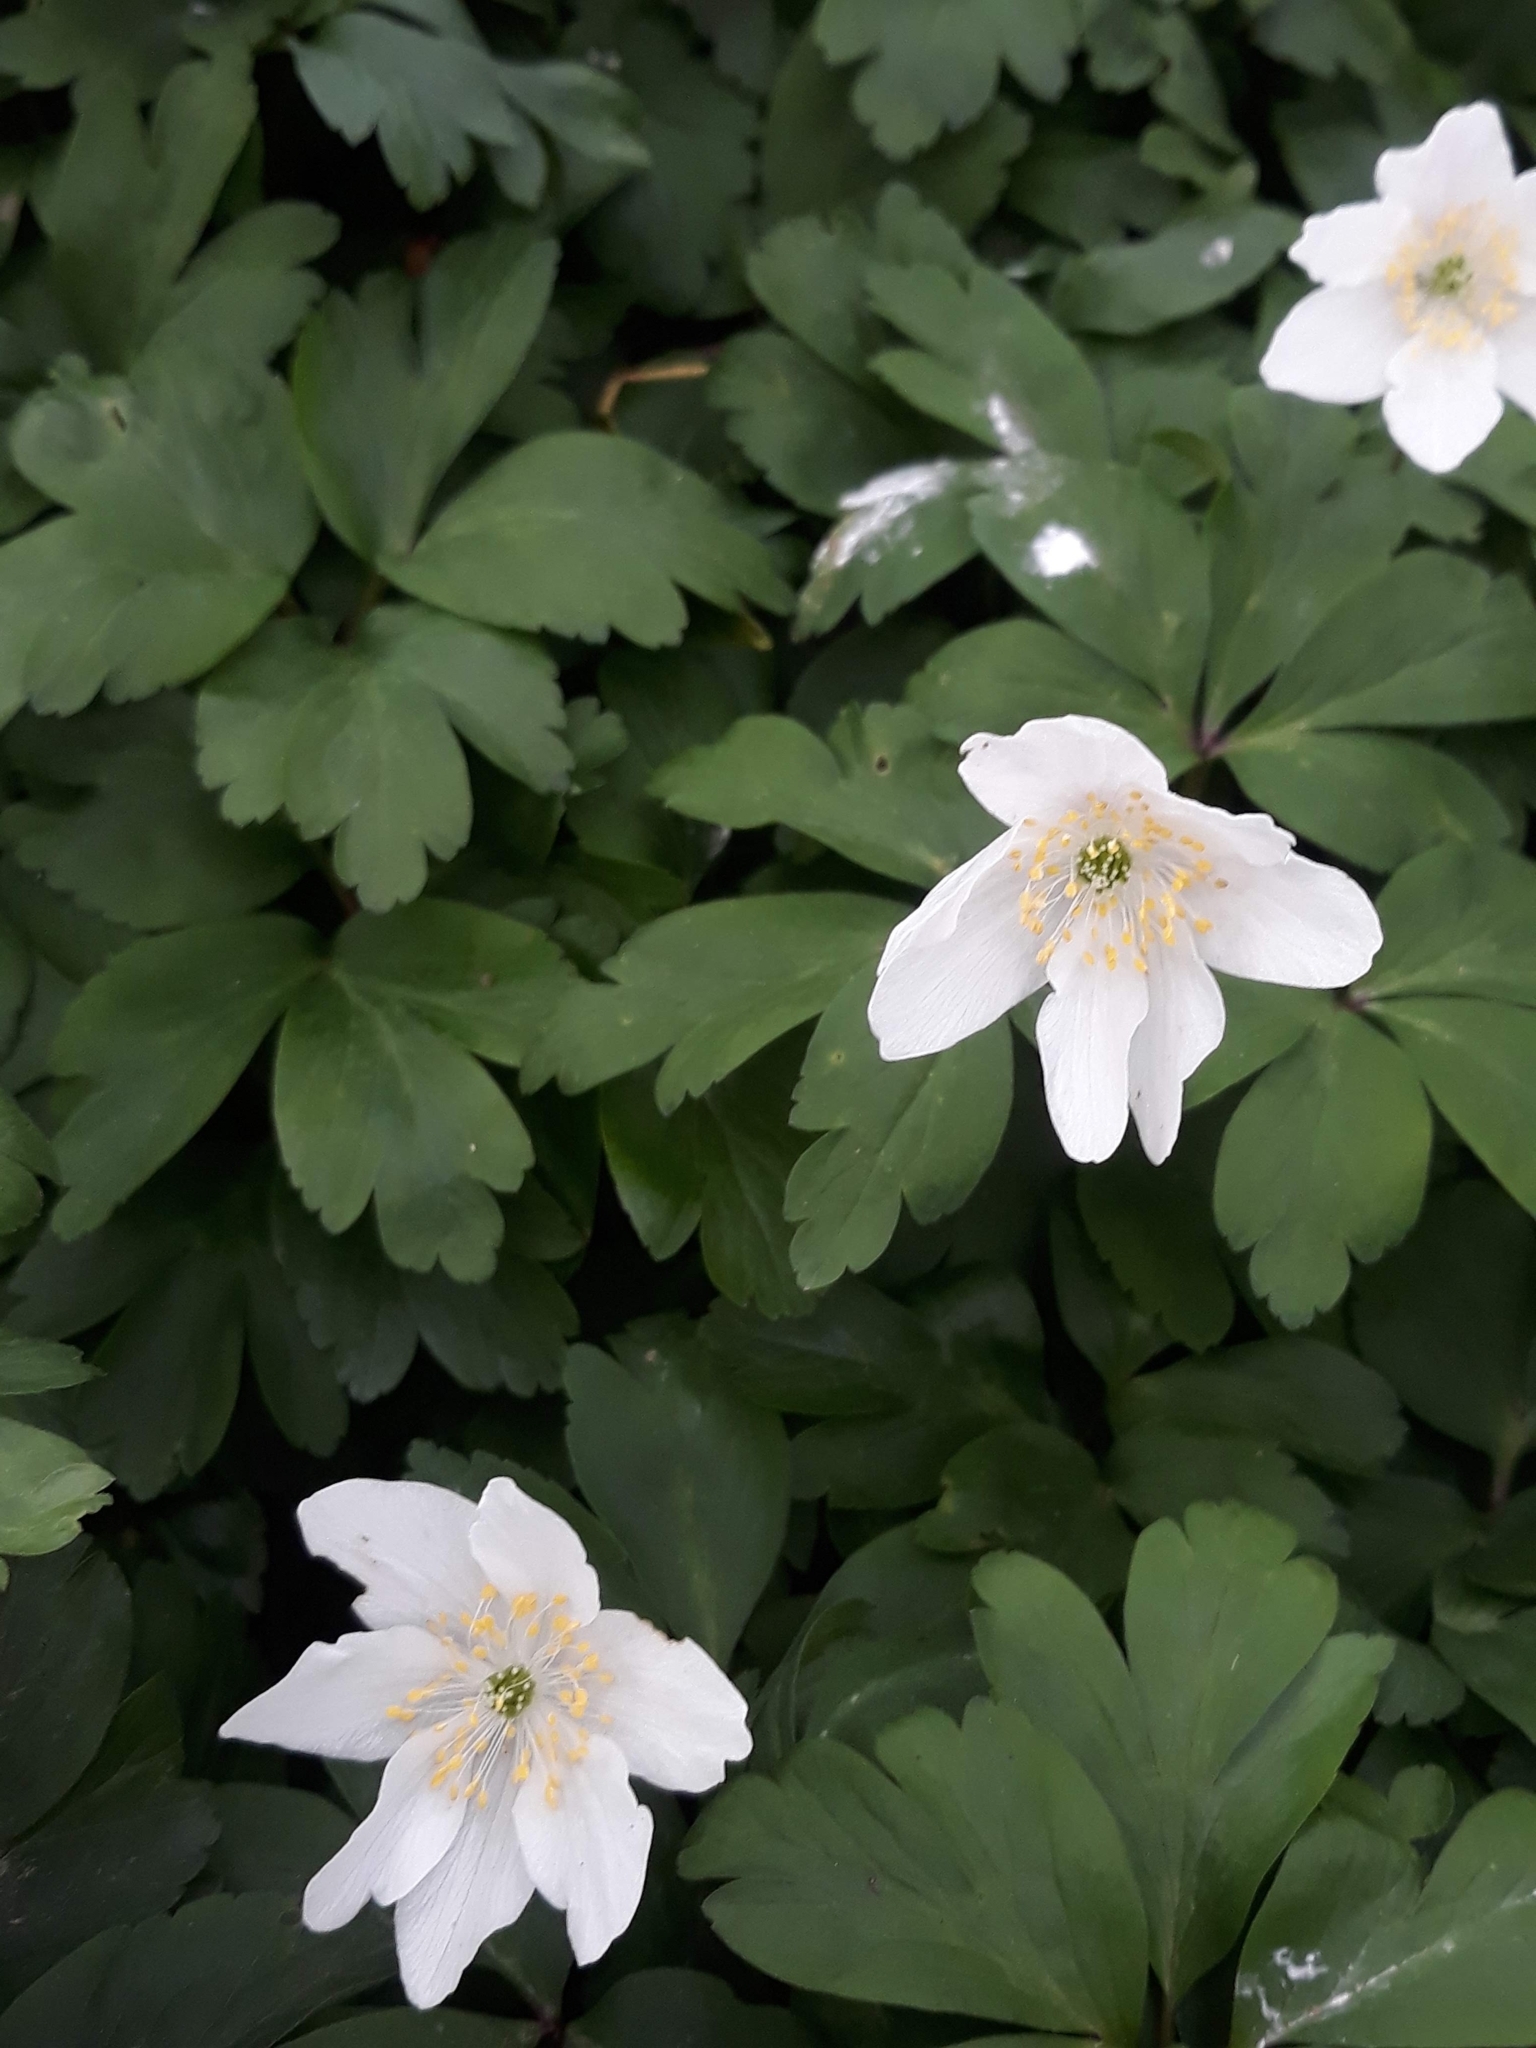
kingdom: Plantae
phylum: Tracheophyta
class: Magnoliopsida
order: Ranunculales
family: Ranunculaceae
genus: Anemone
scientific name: Anemone nemorosa
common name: Wood anemone
